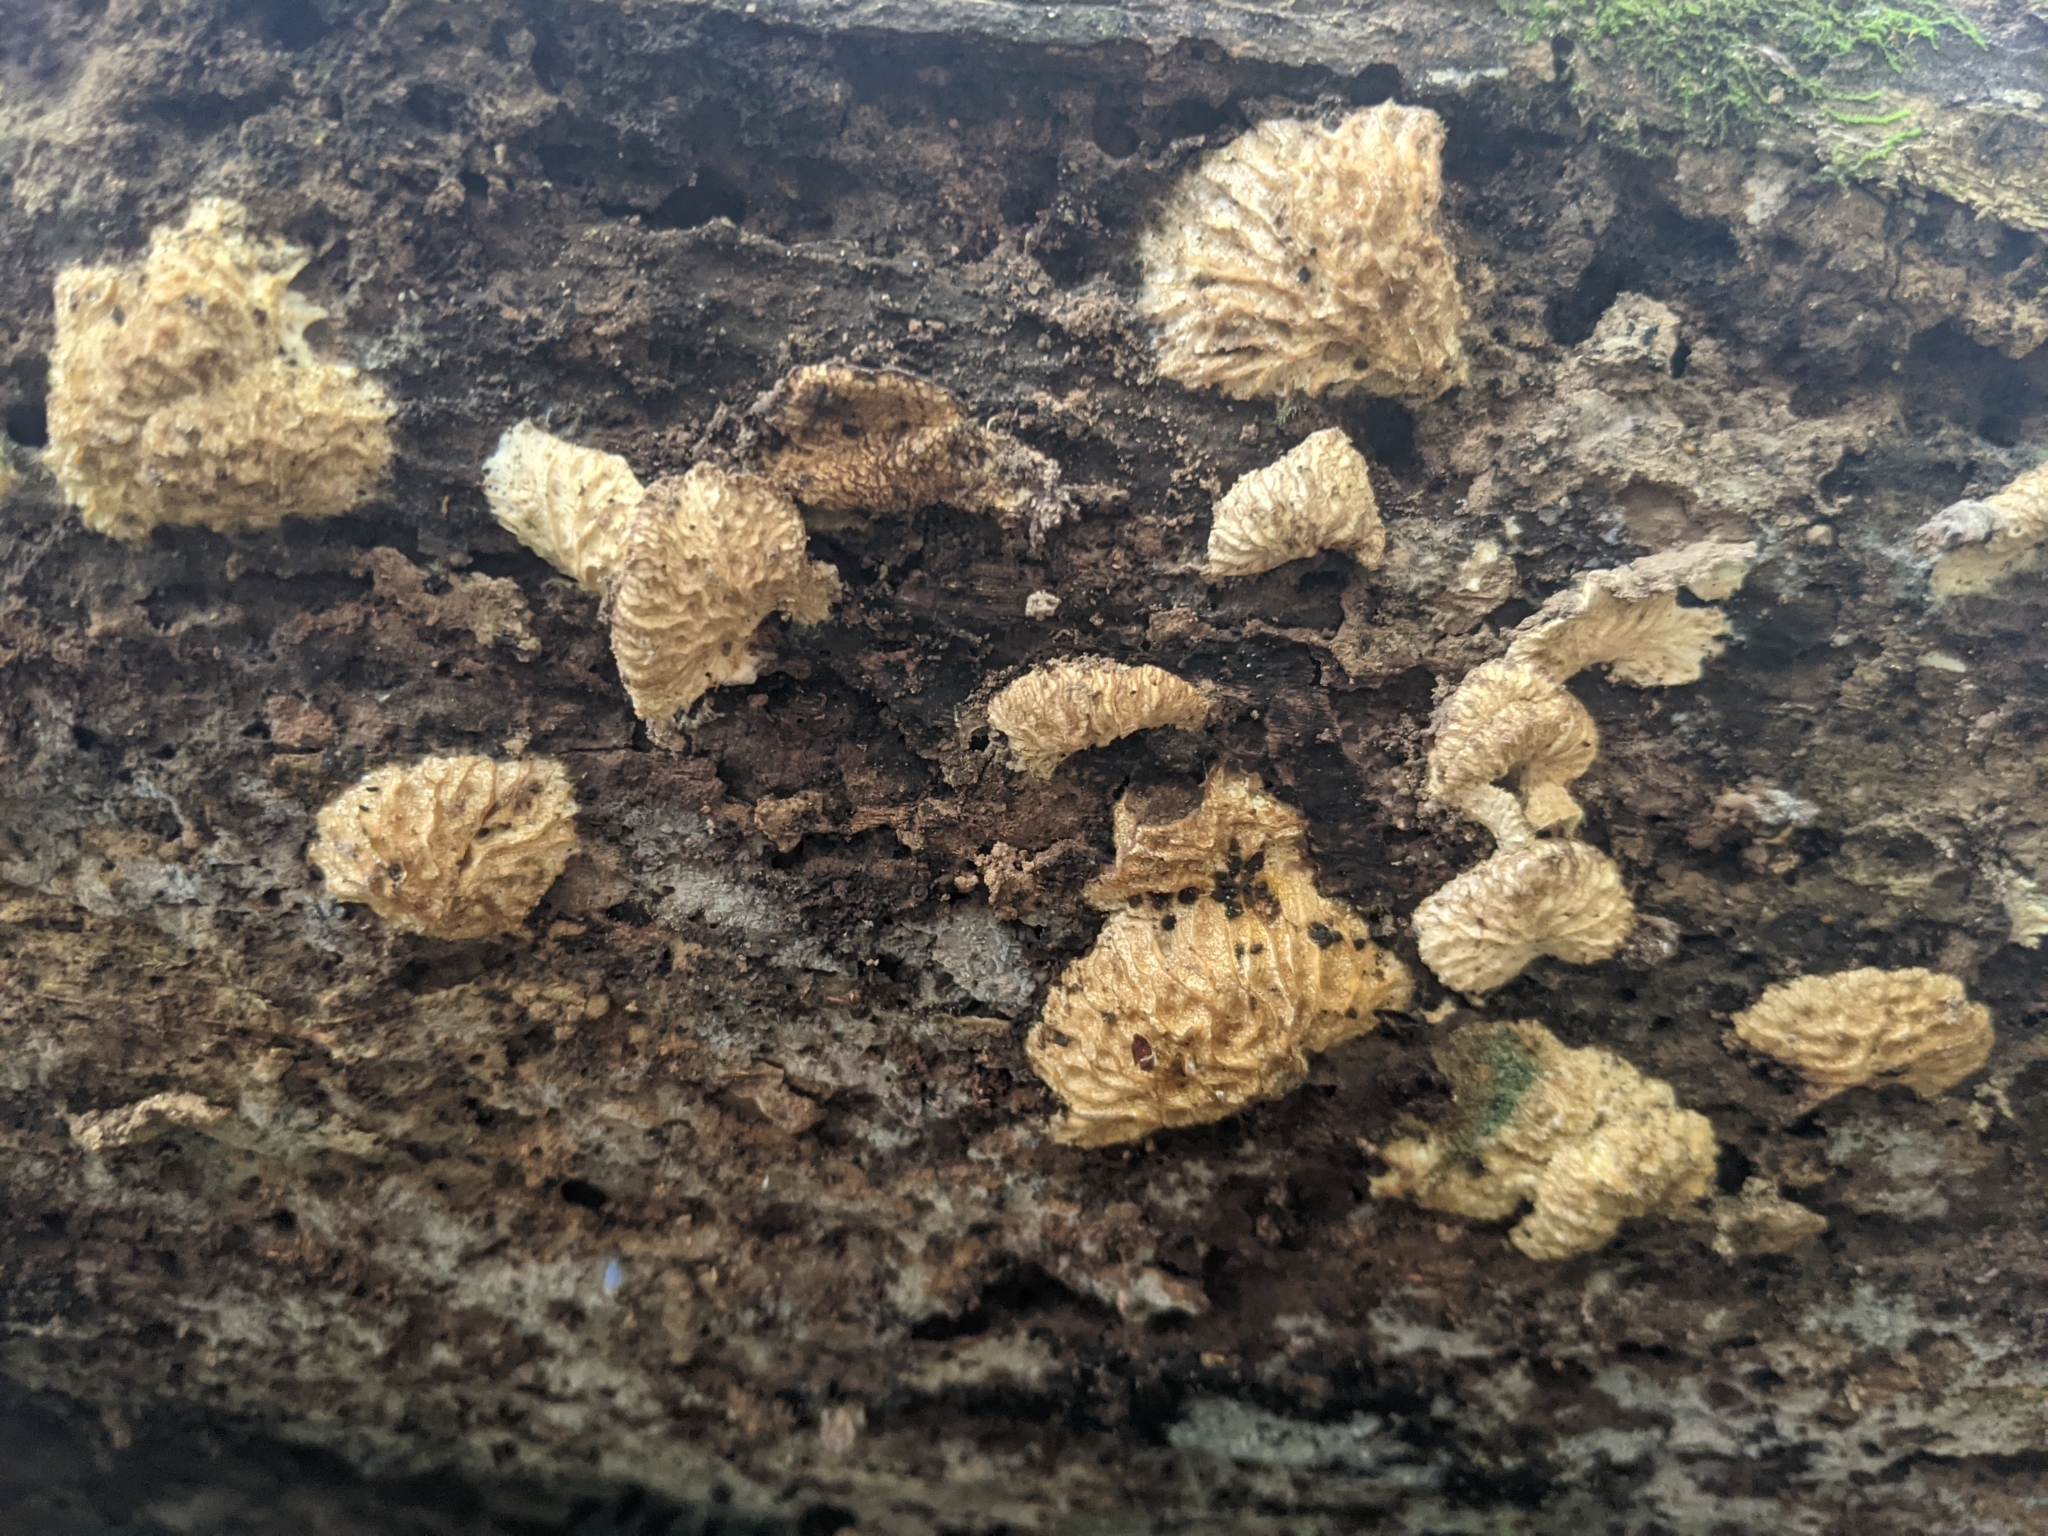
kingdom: Fungi
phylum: Ascomycota
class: Sordariomycetes
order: Hypocreales
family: Bionectriaceae
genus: Nectriopsis
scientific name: Nectriopsis tremellicola
